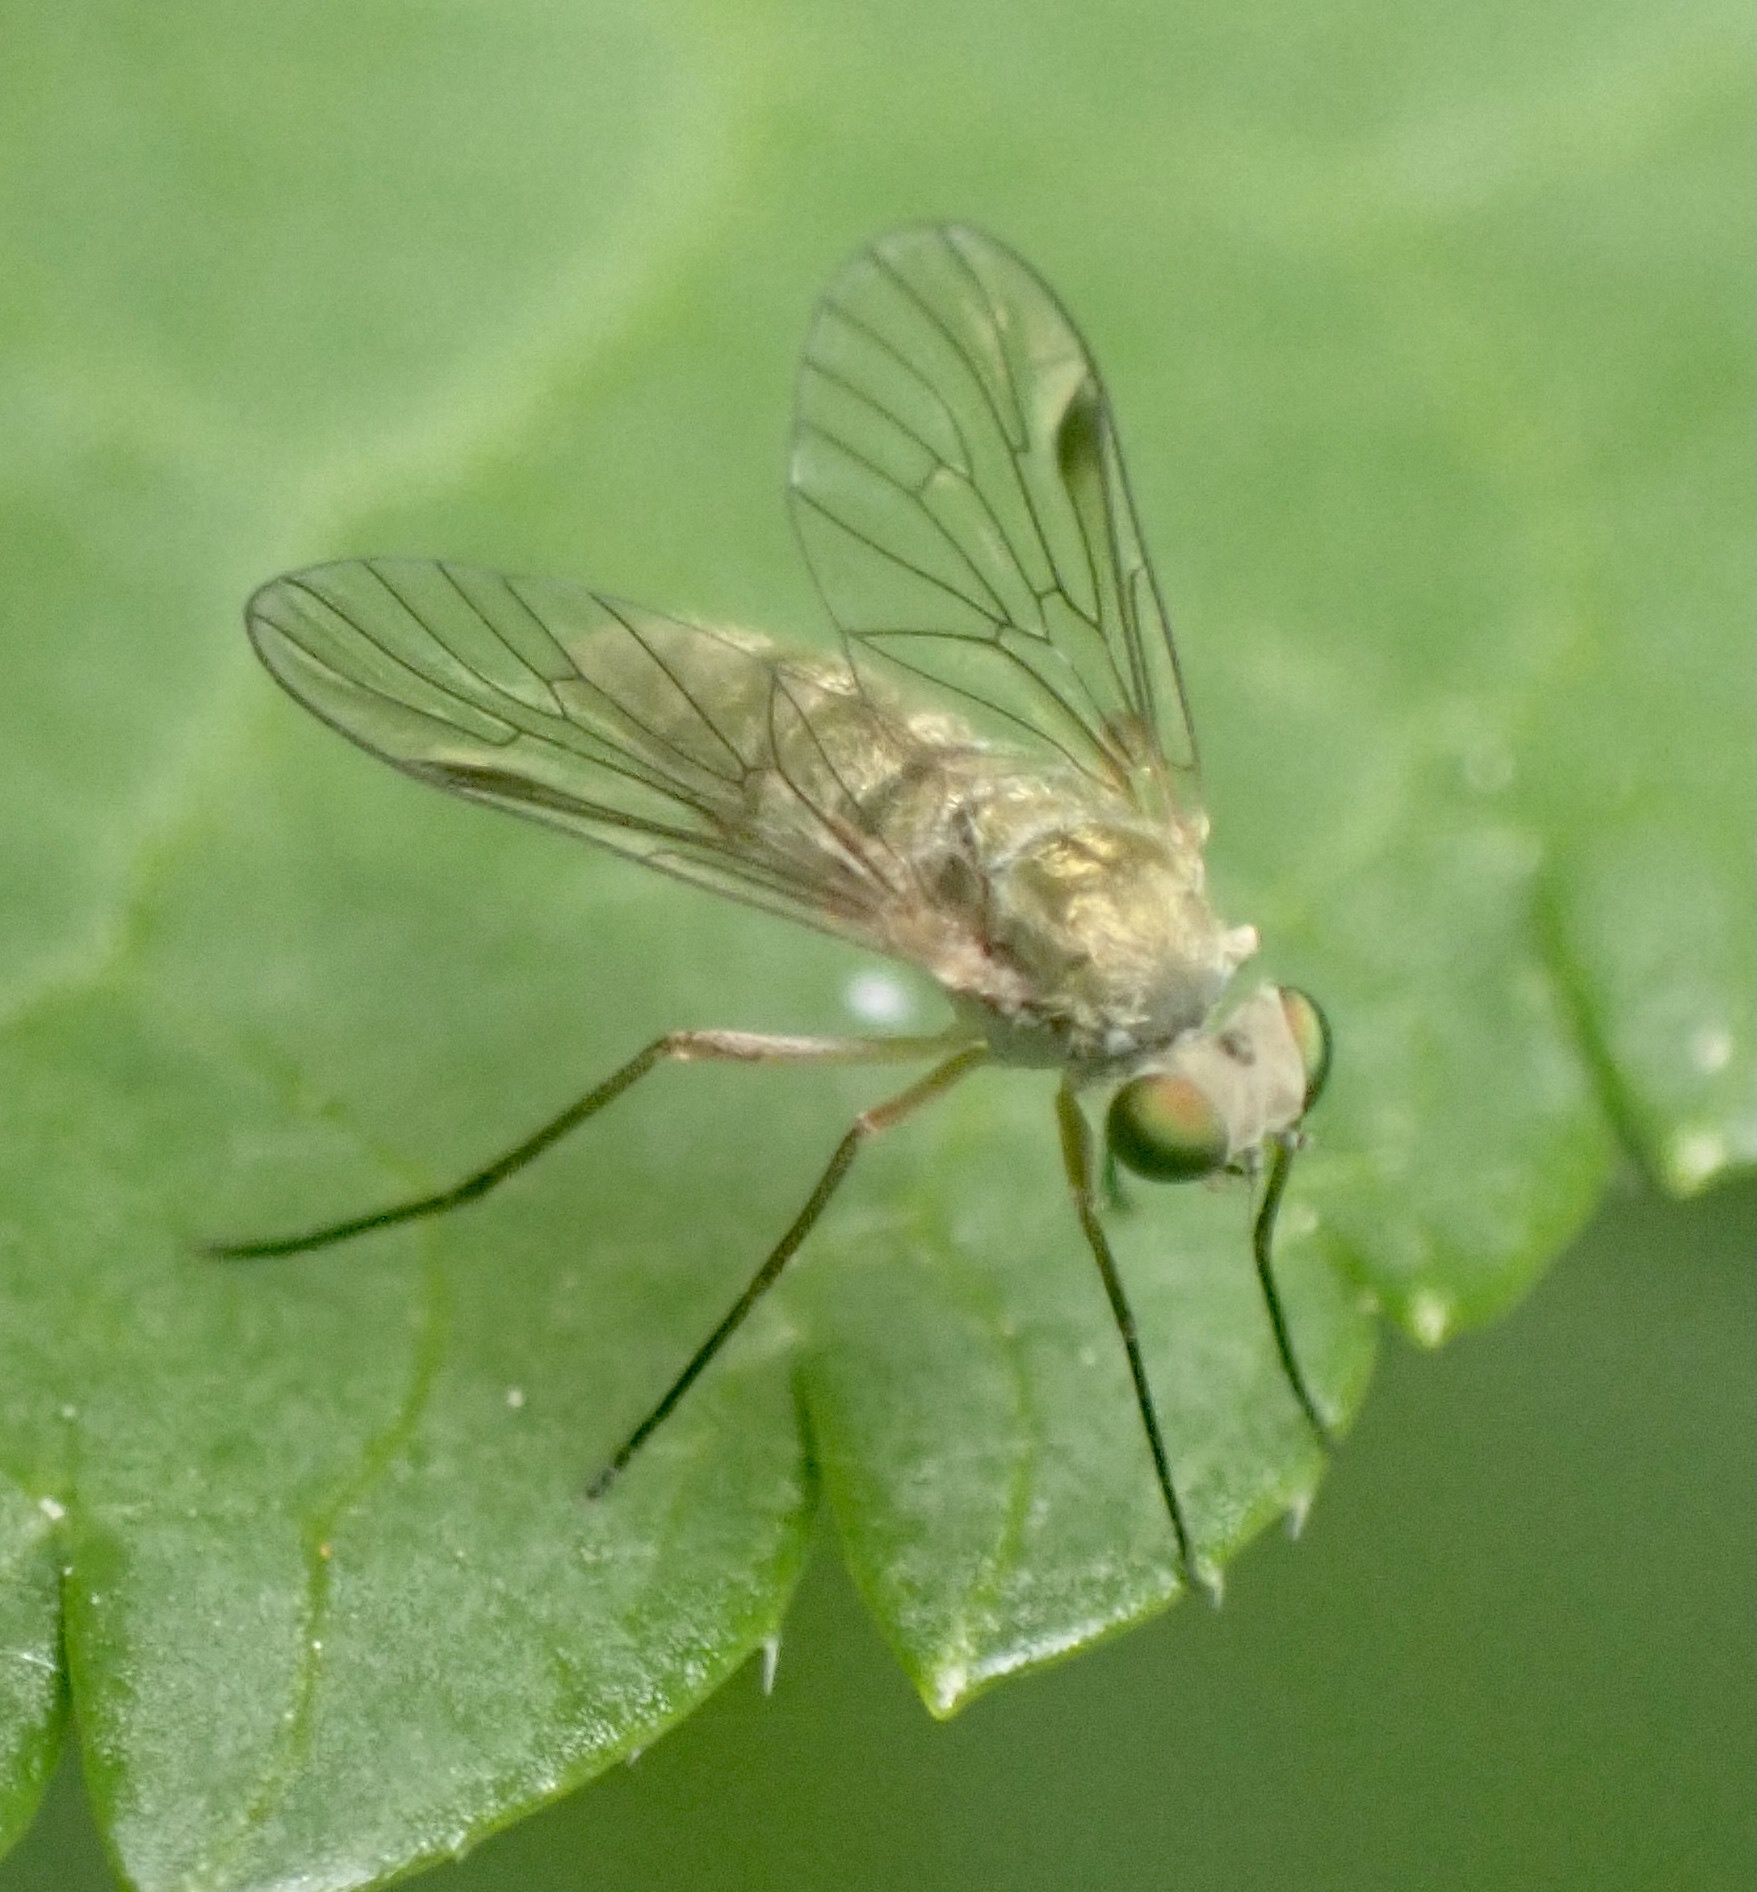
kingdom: Animalia
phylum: Arthropoda
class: Insecta
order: Diptera
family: Rhagionidae
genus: Chrysopilus
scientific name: Chrysopilus asiliformis
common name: Little snipefly
